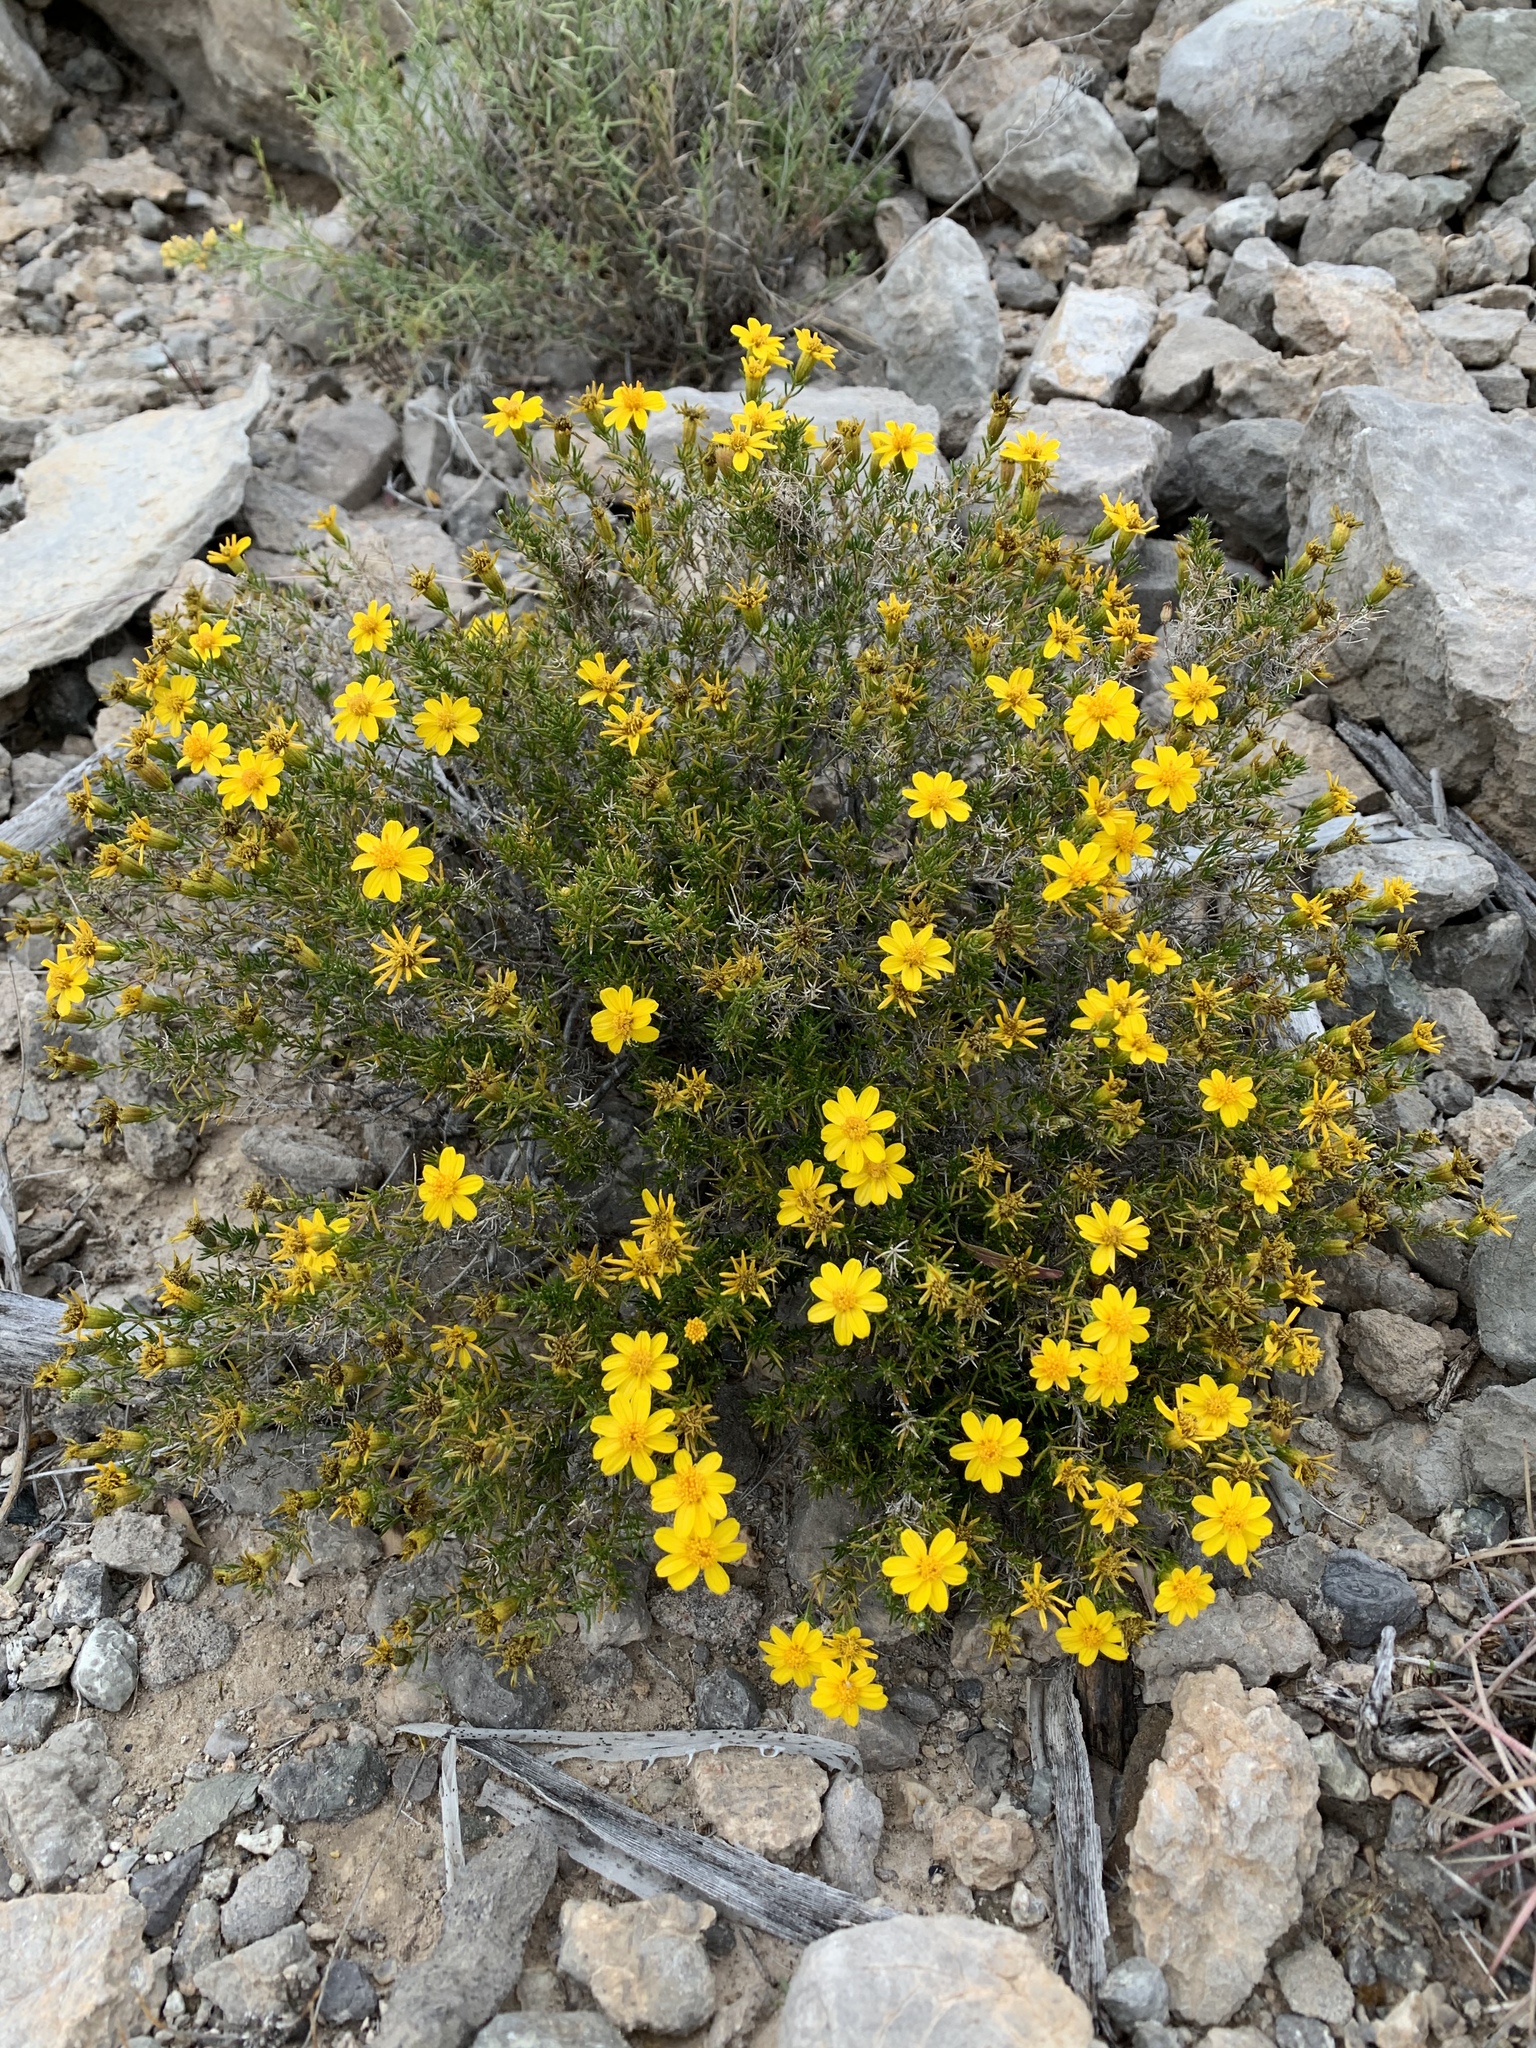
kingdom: Plantae
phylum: Tracheophyta
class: Magnoliopsida
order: Asterales
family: Asteraceae
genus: Thymophylla
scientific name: Thymophylla acerosa
